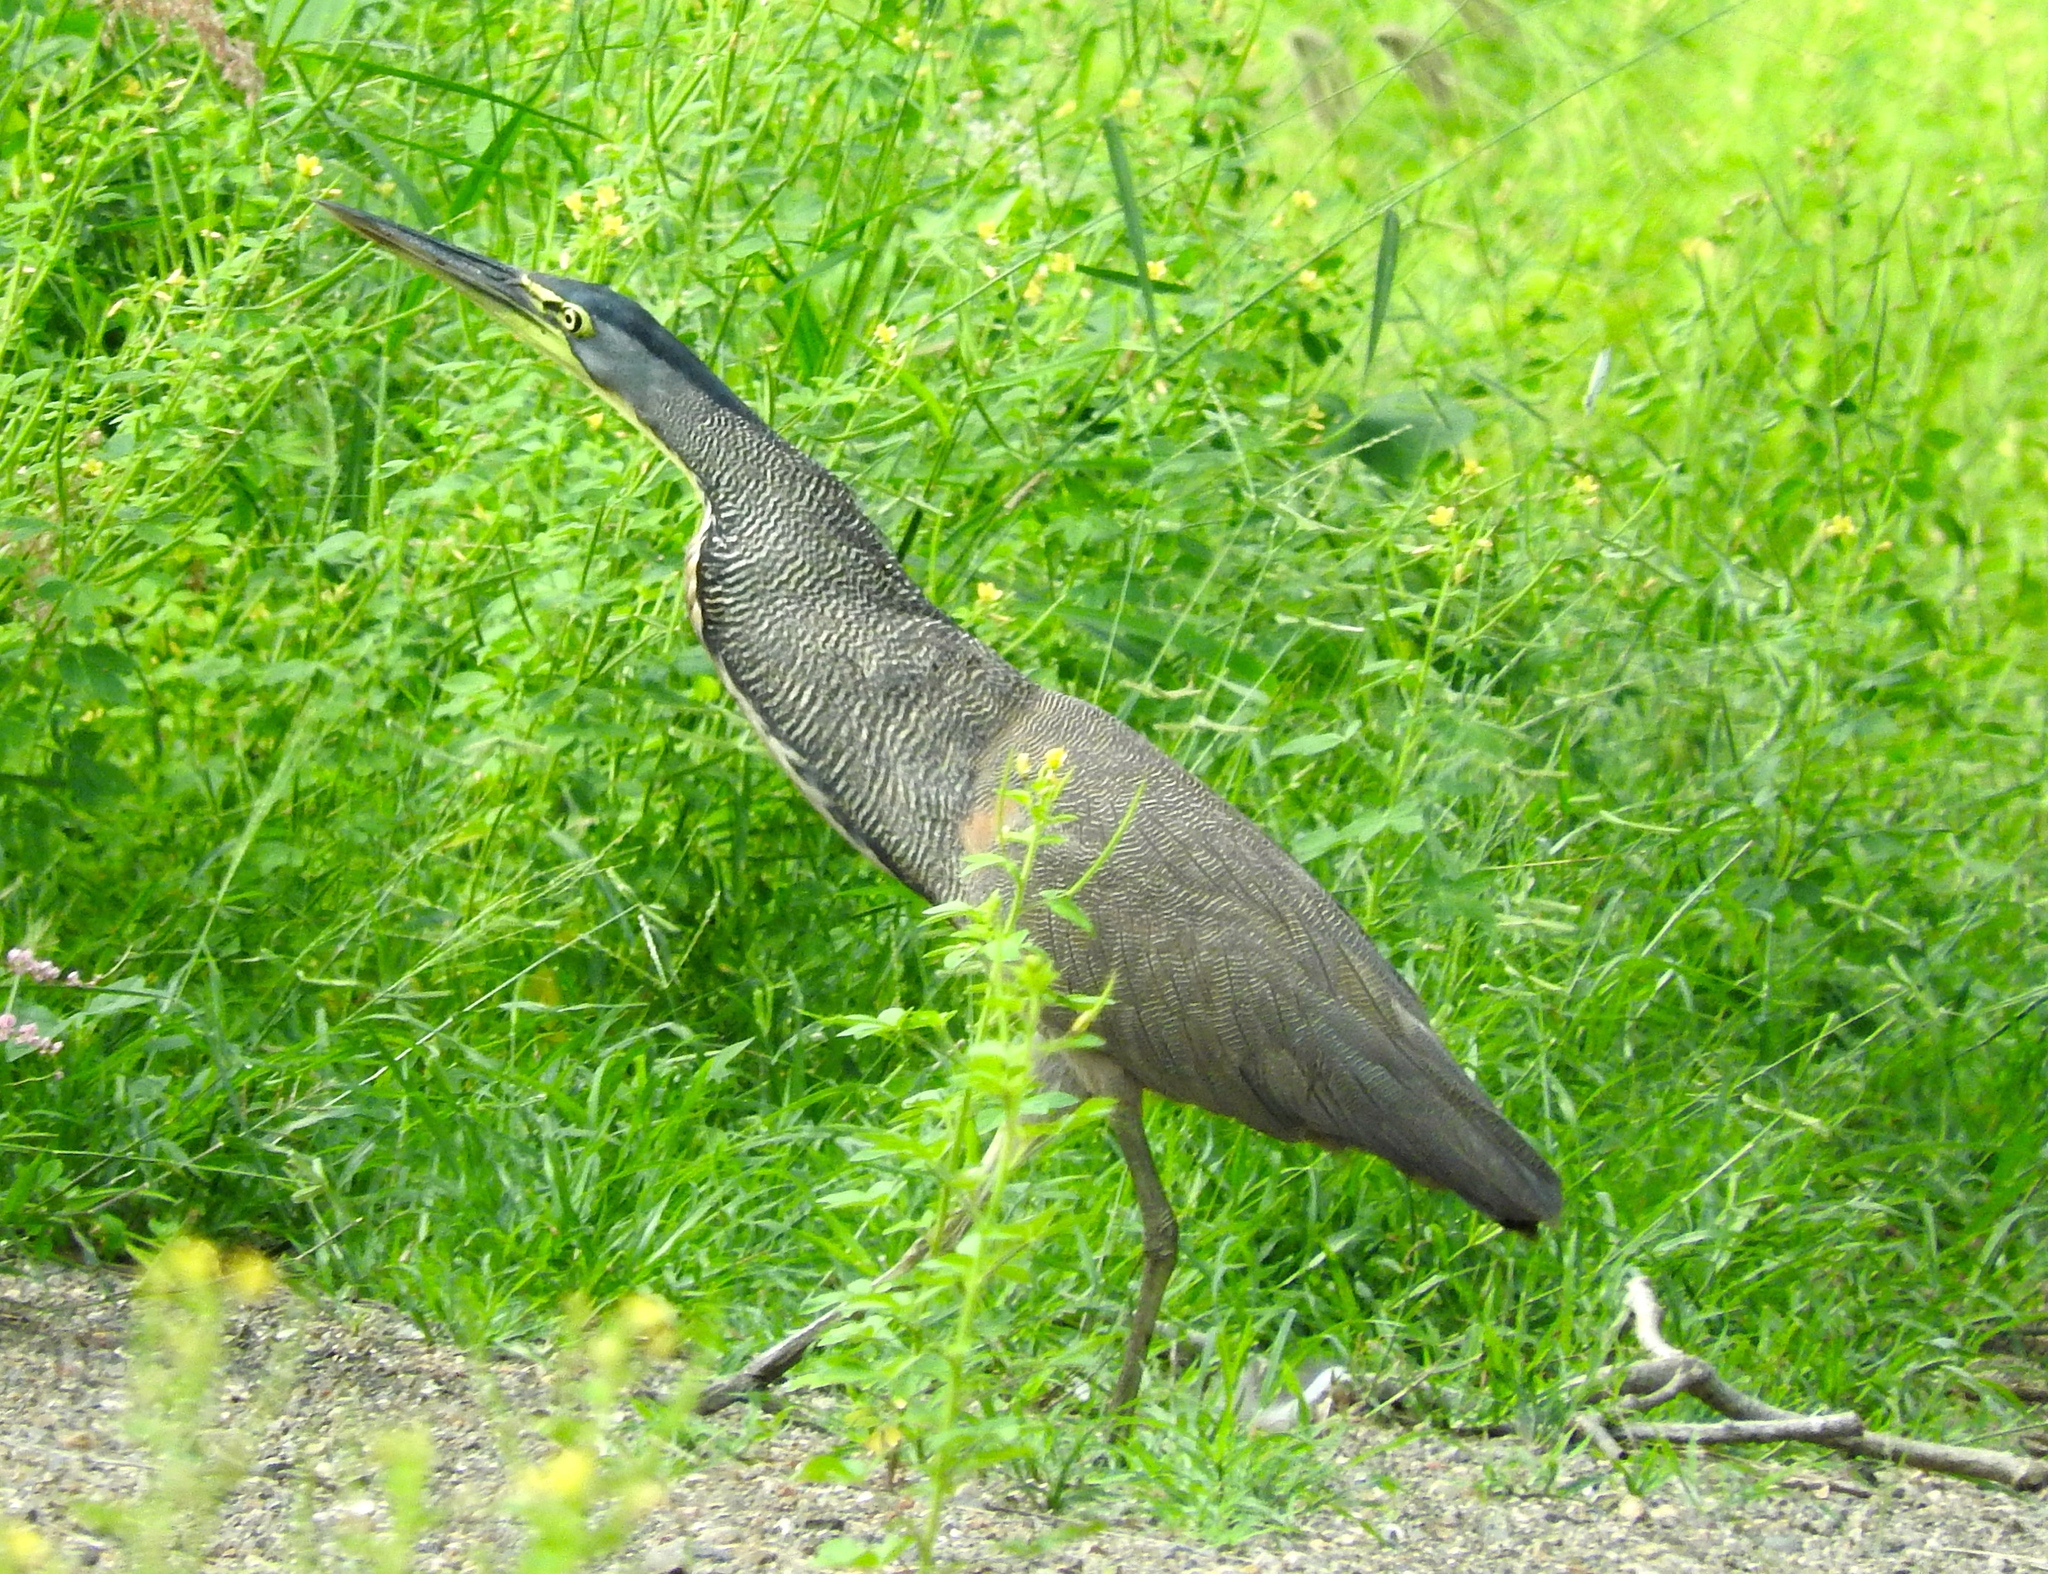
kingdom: Animalia
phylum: Chordata
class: Aves
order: Pelecaniformes
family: Ardeidae
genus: Tigrisoma
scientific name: Tigrisoma mexicanum
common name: Bare-throated tiger-heron
